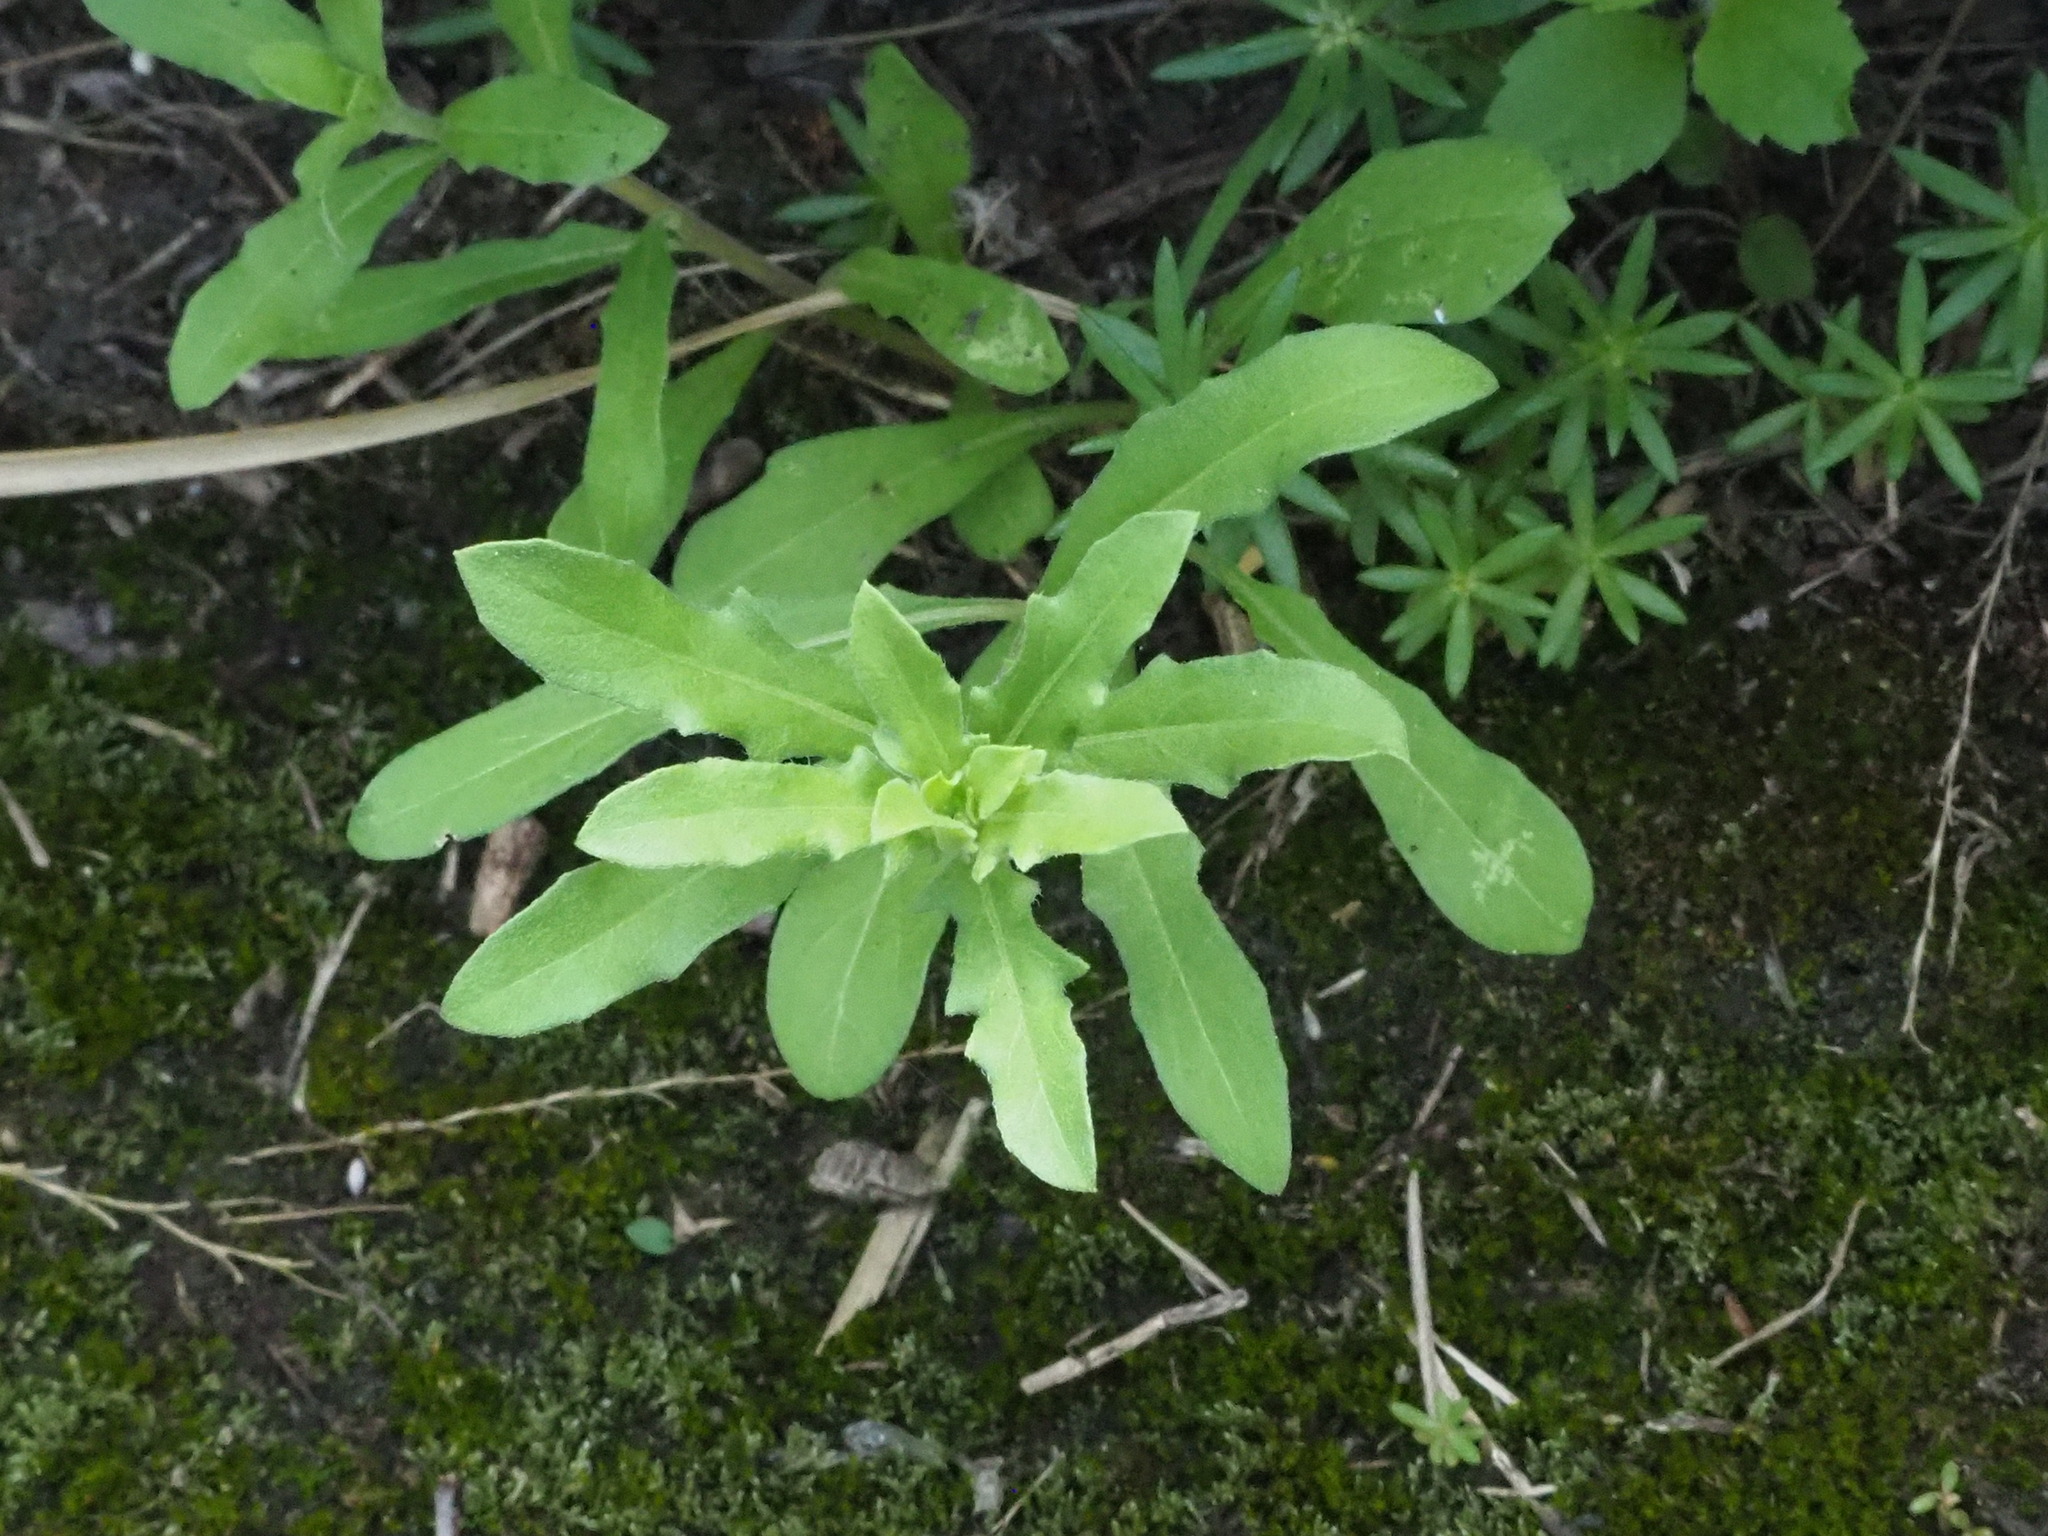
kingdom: Plantae
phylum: Tracheophyta
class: Magnoliopsida
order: Myrtales
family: Onagraceae
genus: Oenothera
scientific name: Oenothera laciniata
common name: Cut-leaved evening-primrose
